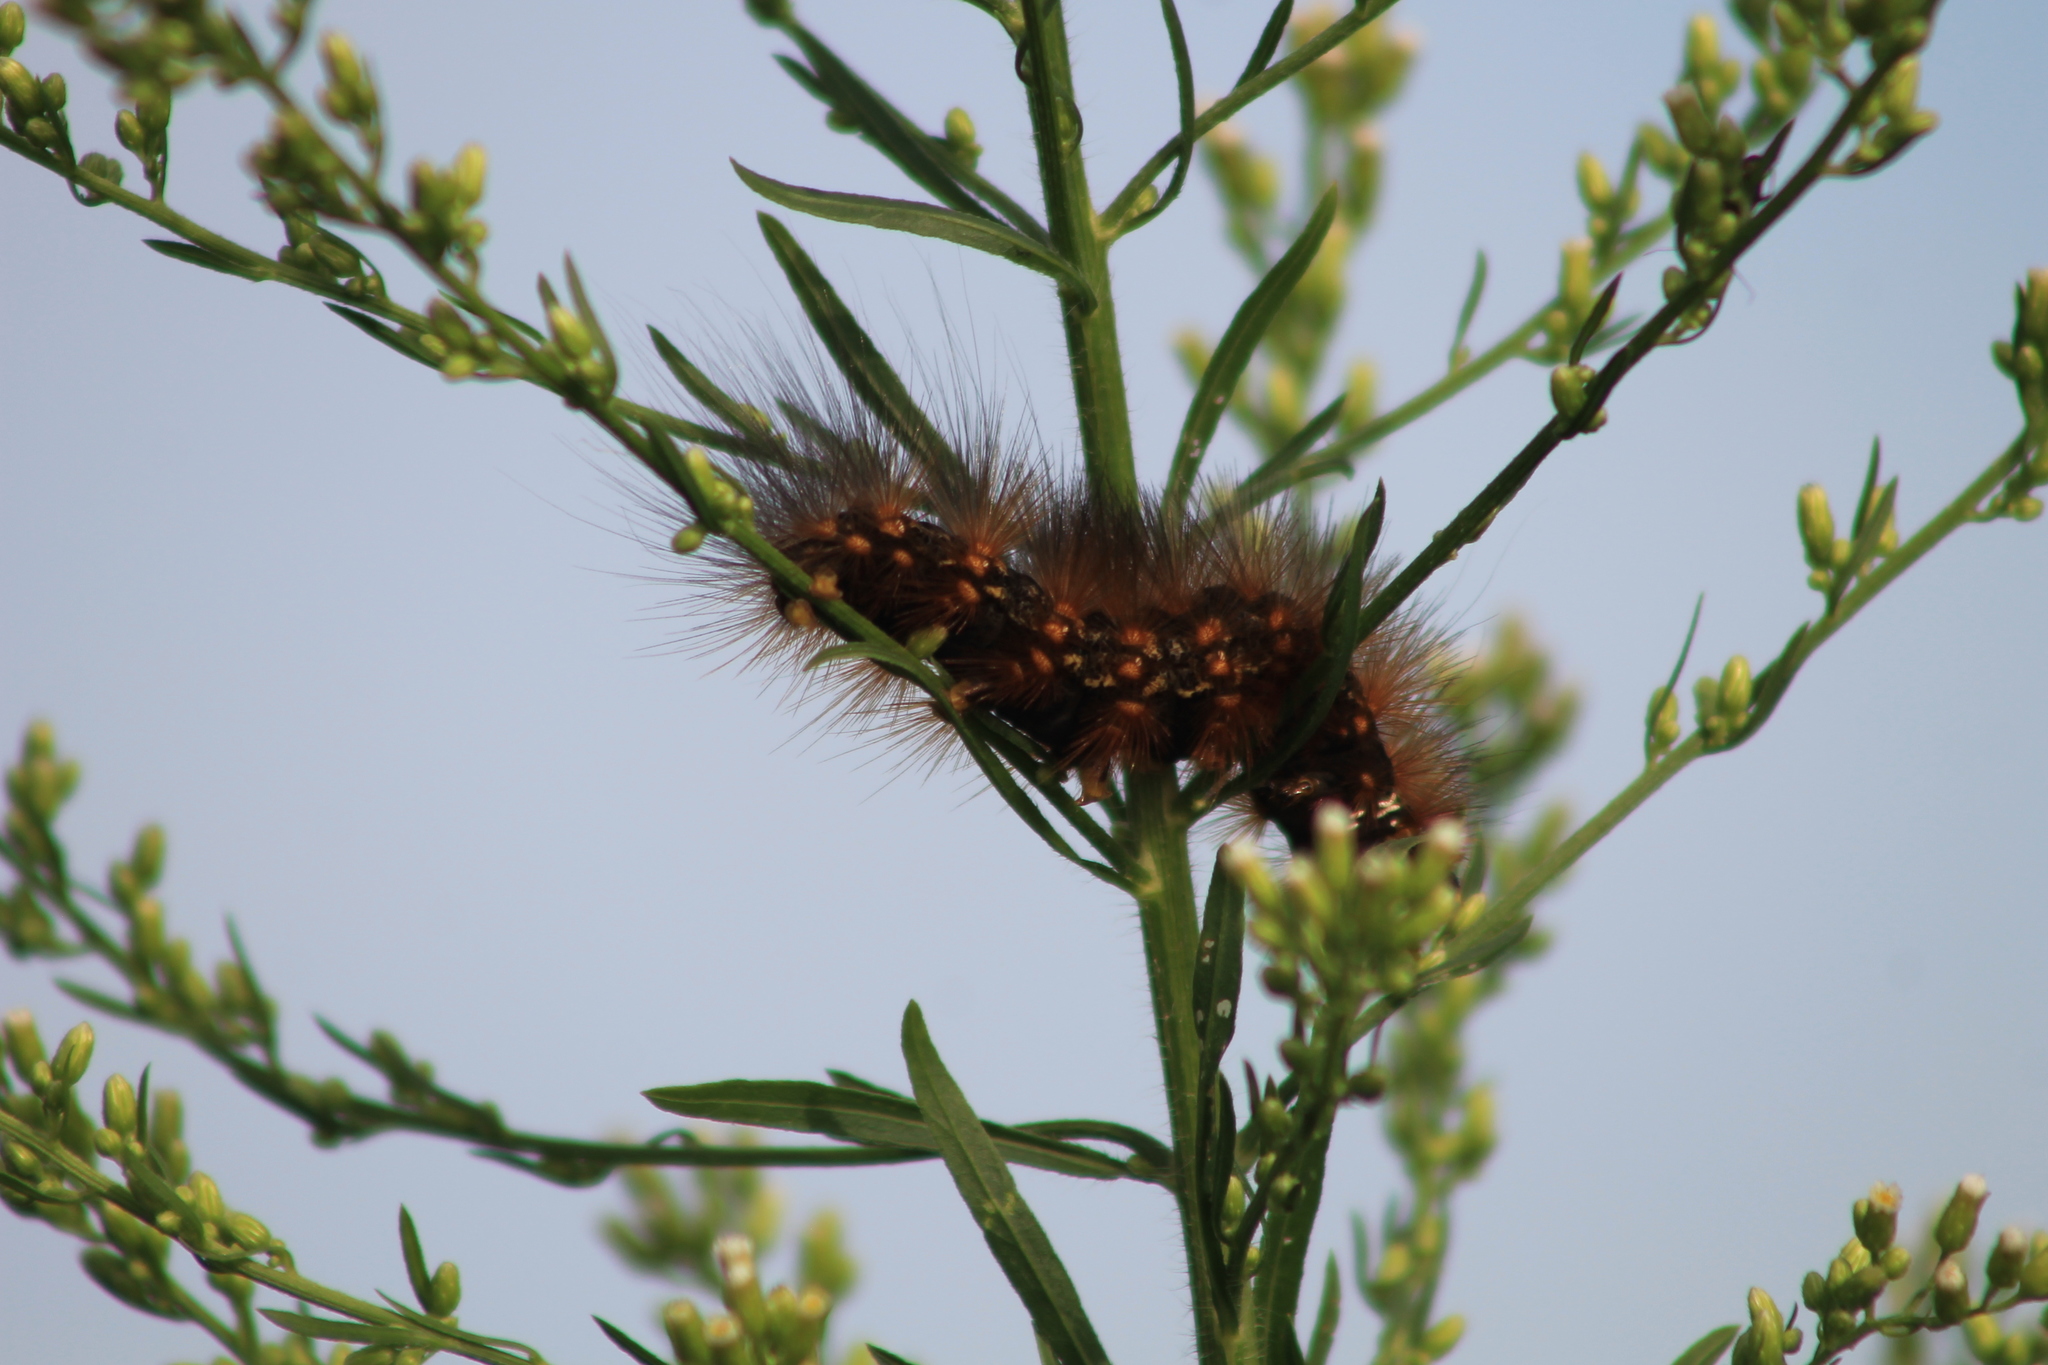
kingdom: Animalia
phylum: Arthropoda
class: Insecta
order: Lepidoptera
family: Erebidae
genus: Estigmene
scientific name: Estigmene acrea
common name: Salt marsh moth
